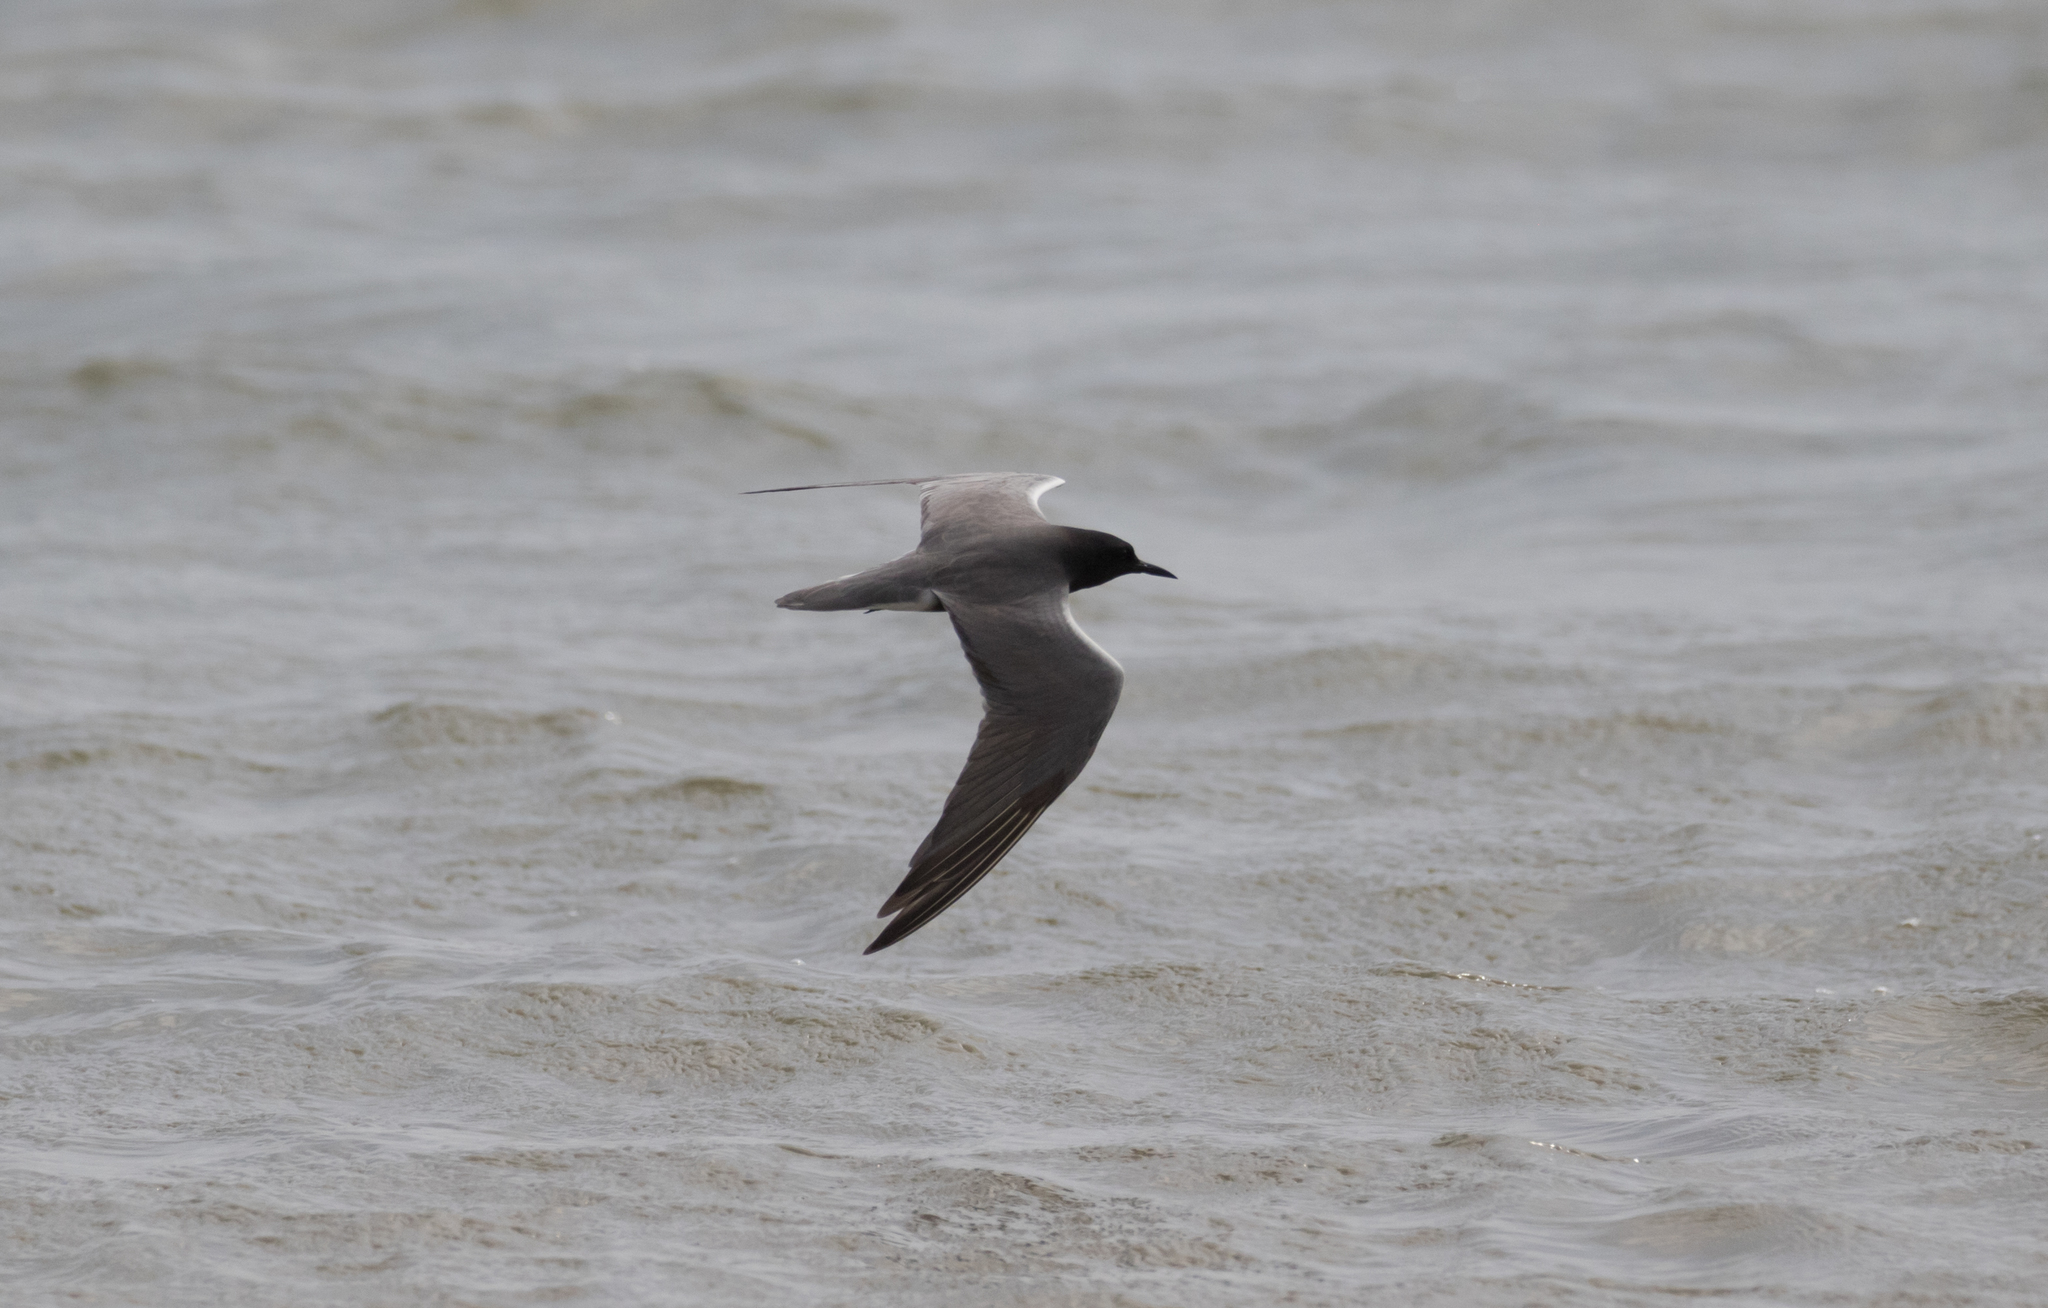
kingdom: Animalia
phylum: Chordata
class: Aves
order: Charadriiformes
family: Laridae
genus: Chlidonias
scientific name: Chlidonias niger
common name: Black tern
